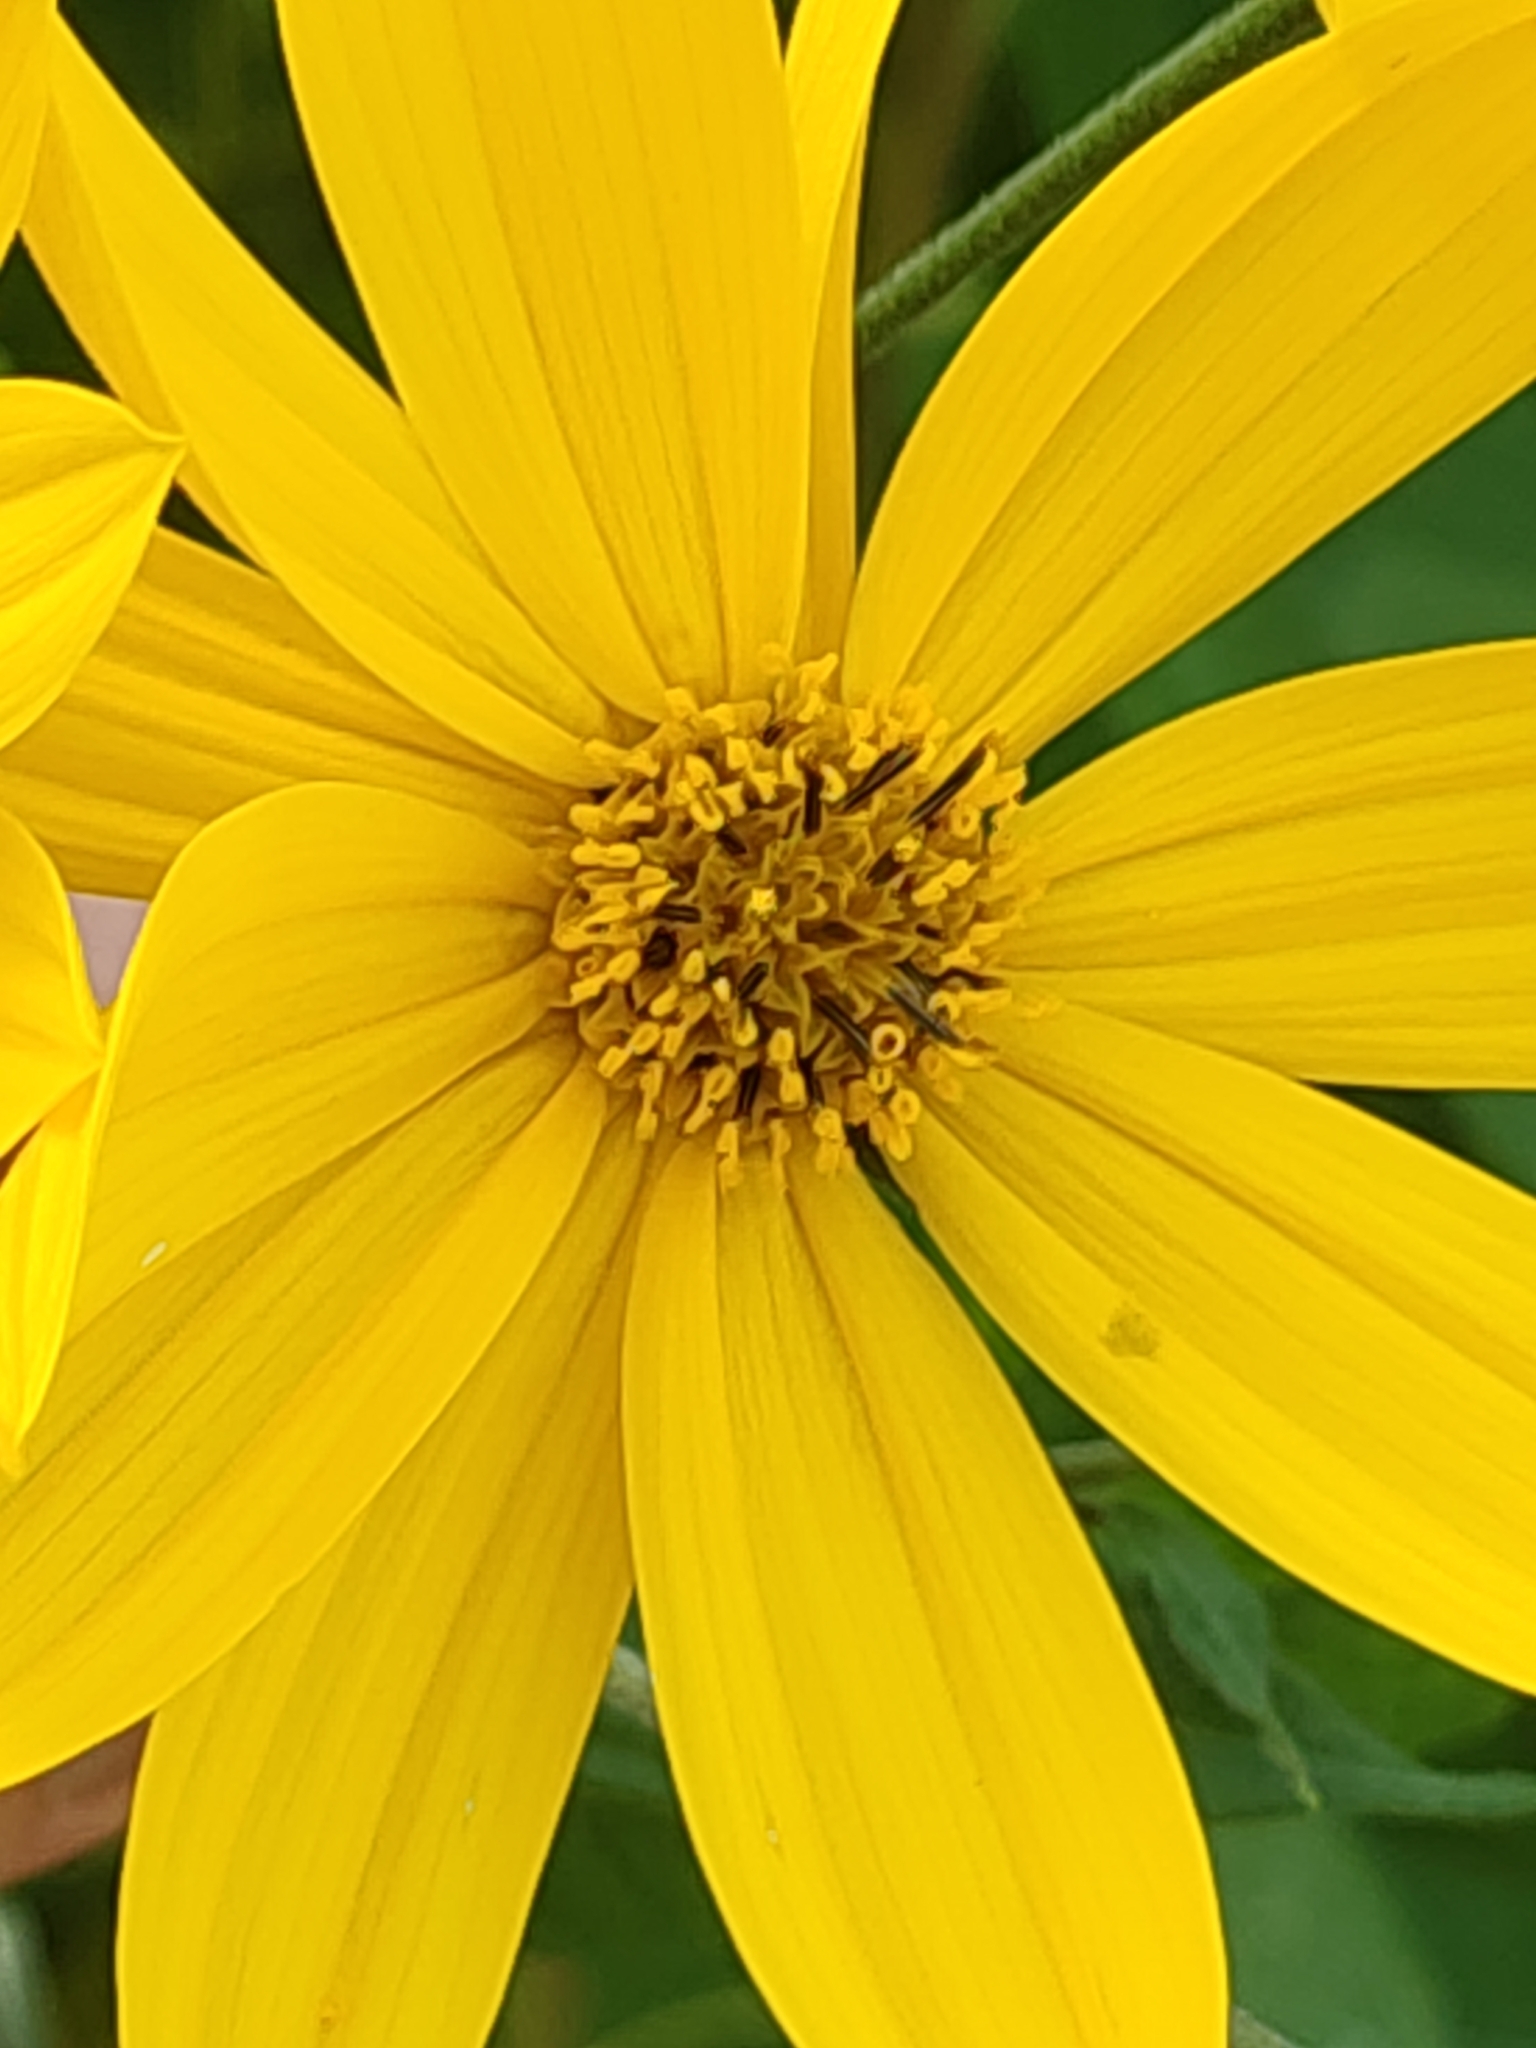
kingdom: Plantae
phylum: Tracheophyta
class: Magnoliopsida
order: Asterales
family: Asteraceae
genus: Helianthus
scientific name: Helianthus tuberosus
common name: Jerusalem artichoke
